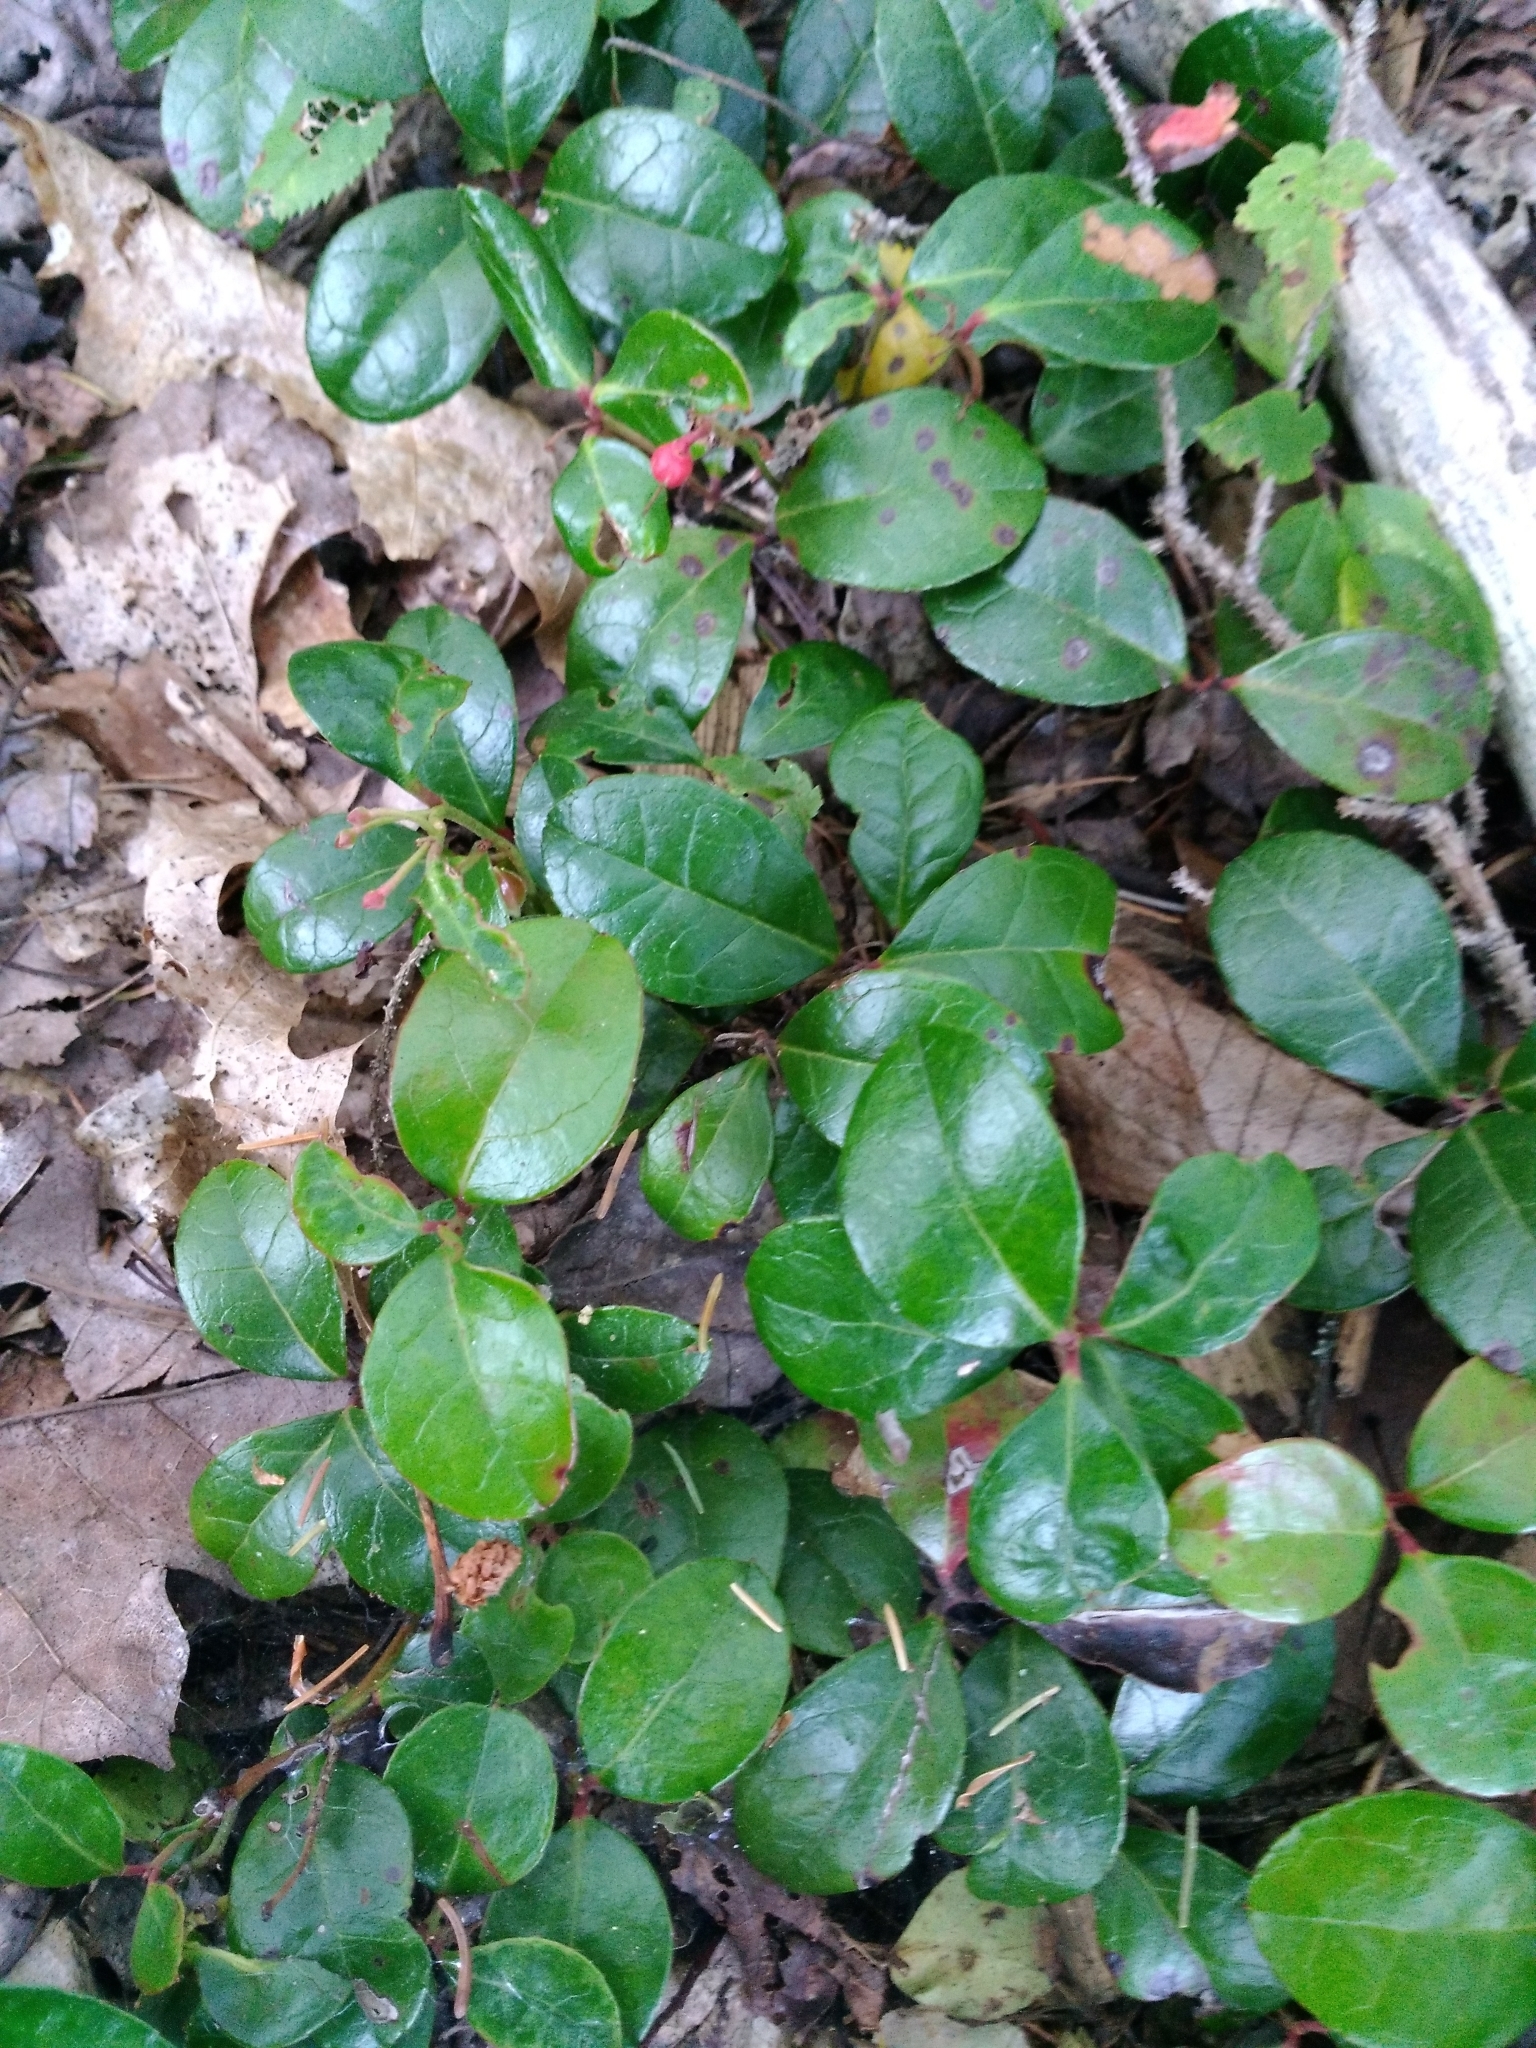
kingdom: Plantae
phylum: Tracheophyta
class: Magnoliopsida
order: Ericales
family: Ericaceae
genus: Gaultheria
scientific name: Gaultheria procumbens
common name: Checkerberry
